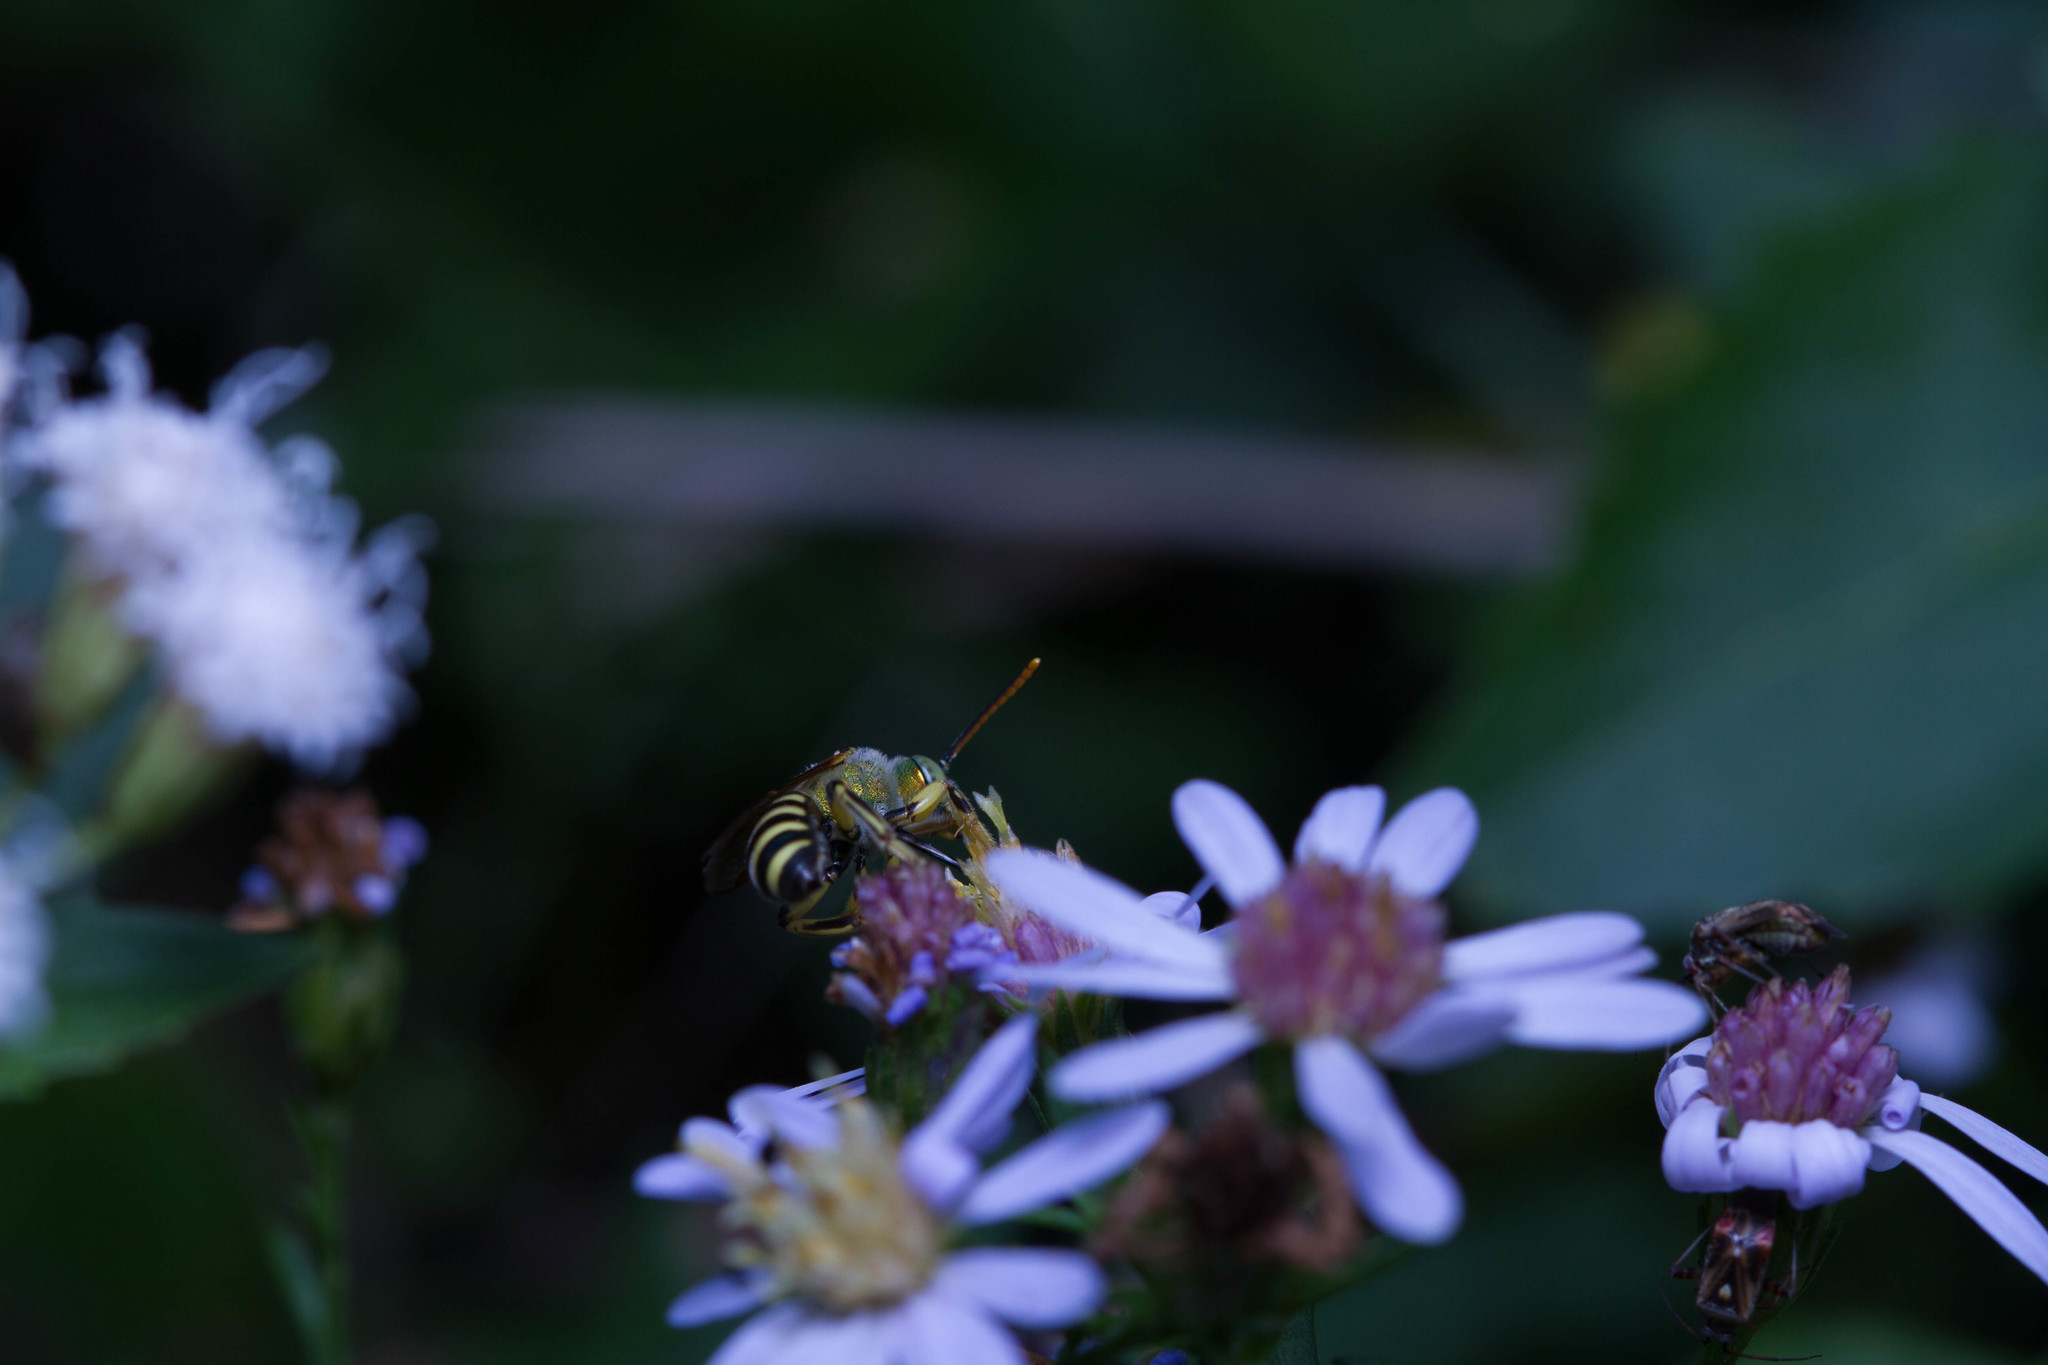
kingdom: Animalia
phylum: Arthropoda
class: Insecta
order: Hymenoptera
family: Halictidae
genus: Agapostemon
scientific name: Agapostemon texanus
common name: Texas striped sweat bee
